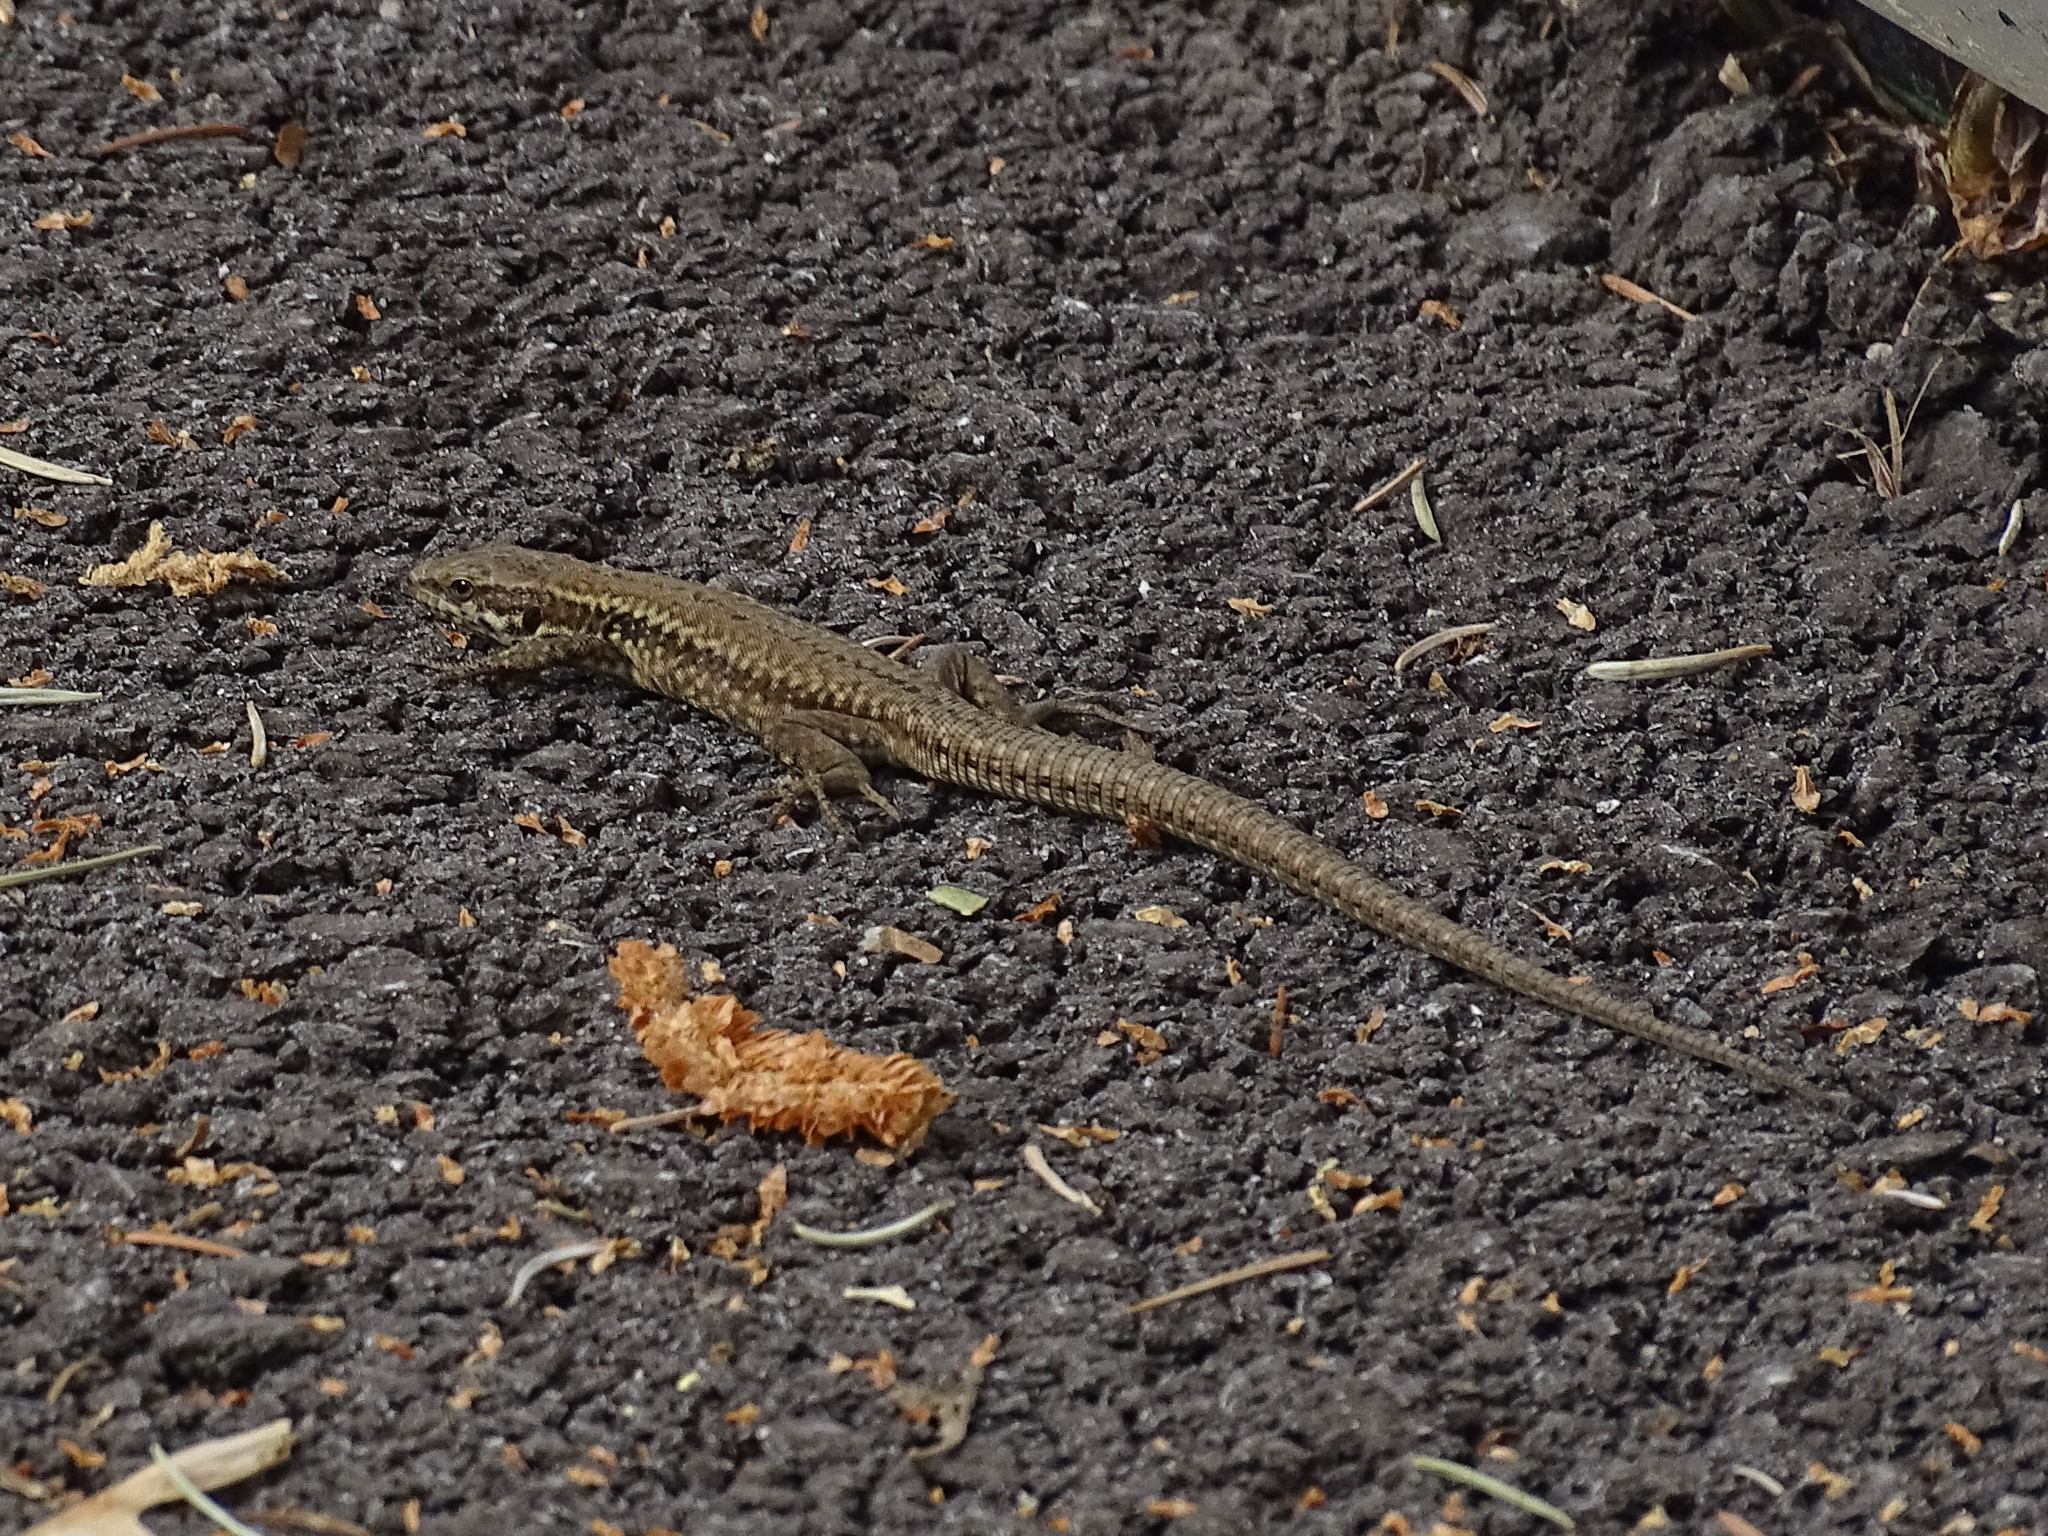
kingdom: Animalia
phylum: Chordata
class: Squamata
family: Lacertidae
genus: Podarcis
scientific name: Podarcis muralis
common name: Common wall lizard
